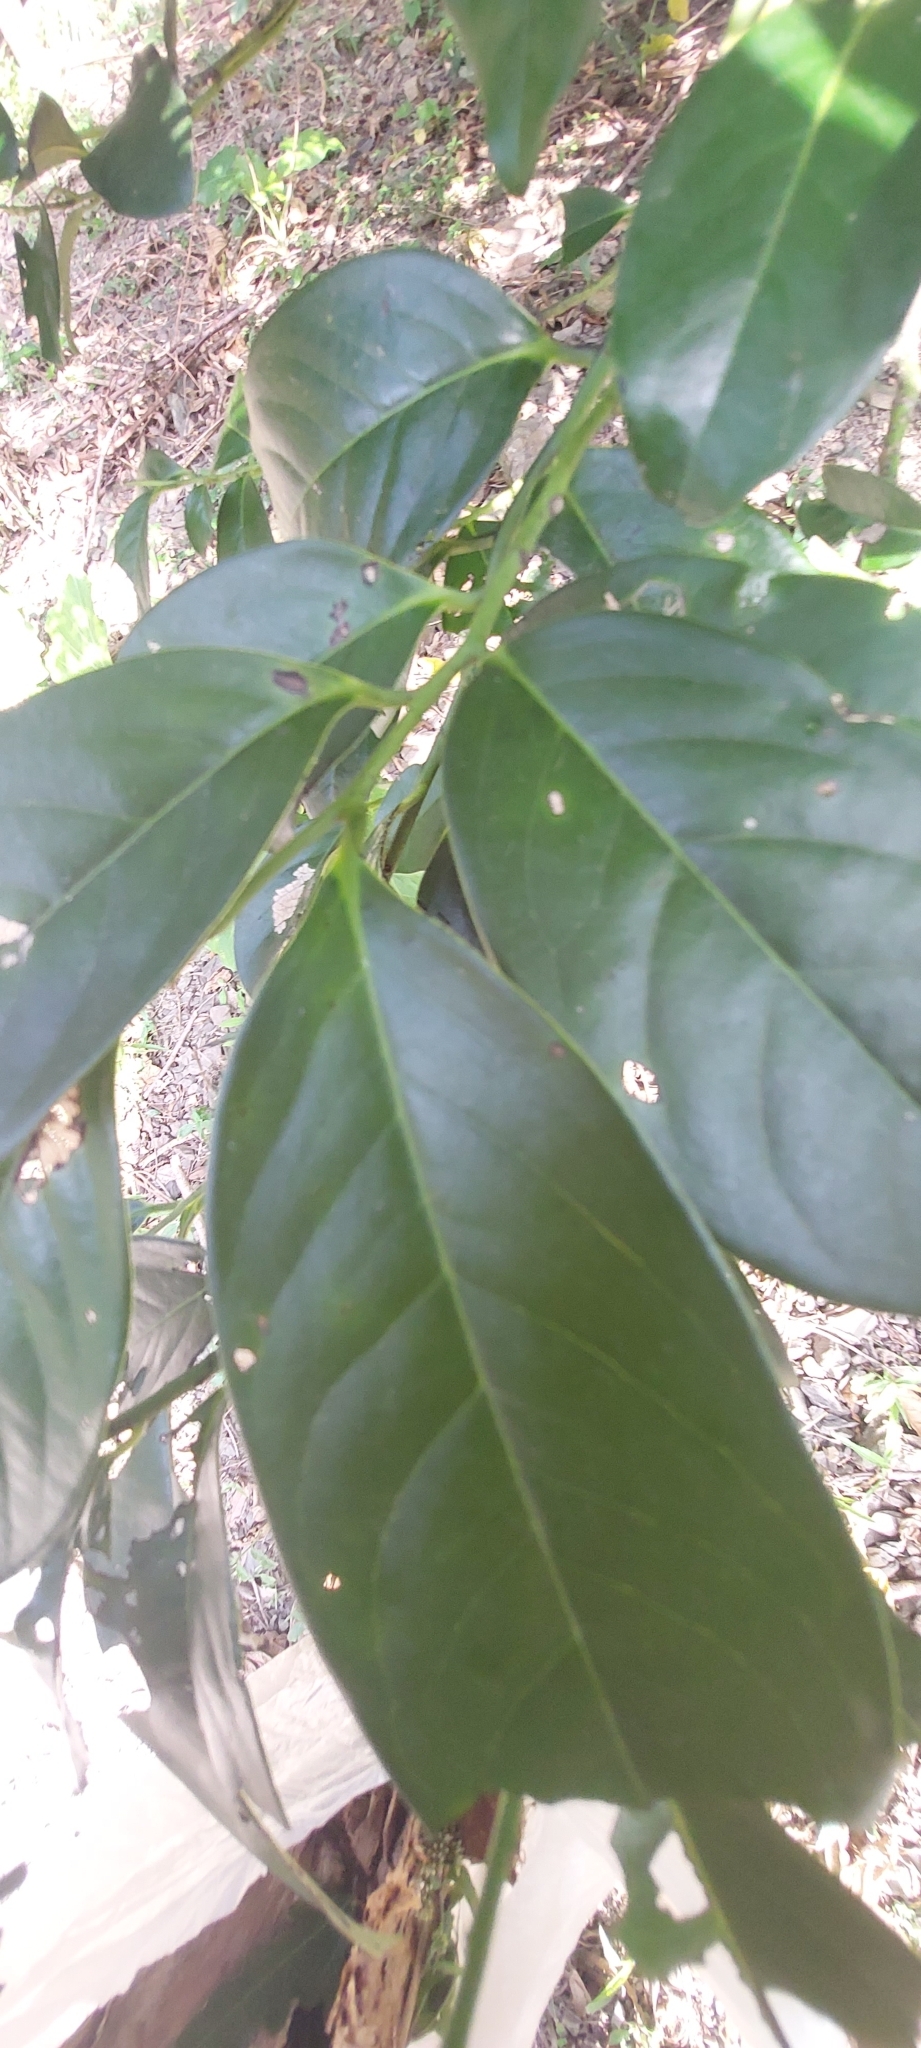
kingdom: Plantae
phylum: Tracheophyta
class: Magnoliopsida
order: Ericales
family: Ebenaceae
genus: Diospyros
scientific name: Diospyros maritima
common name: Malaysian persimmon
